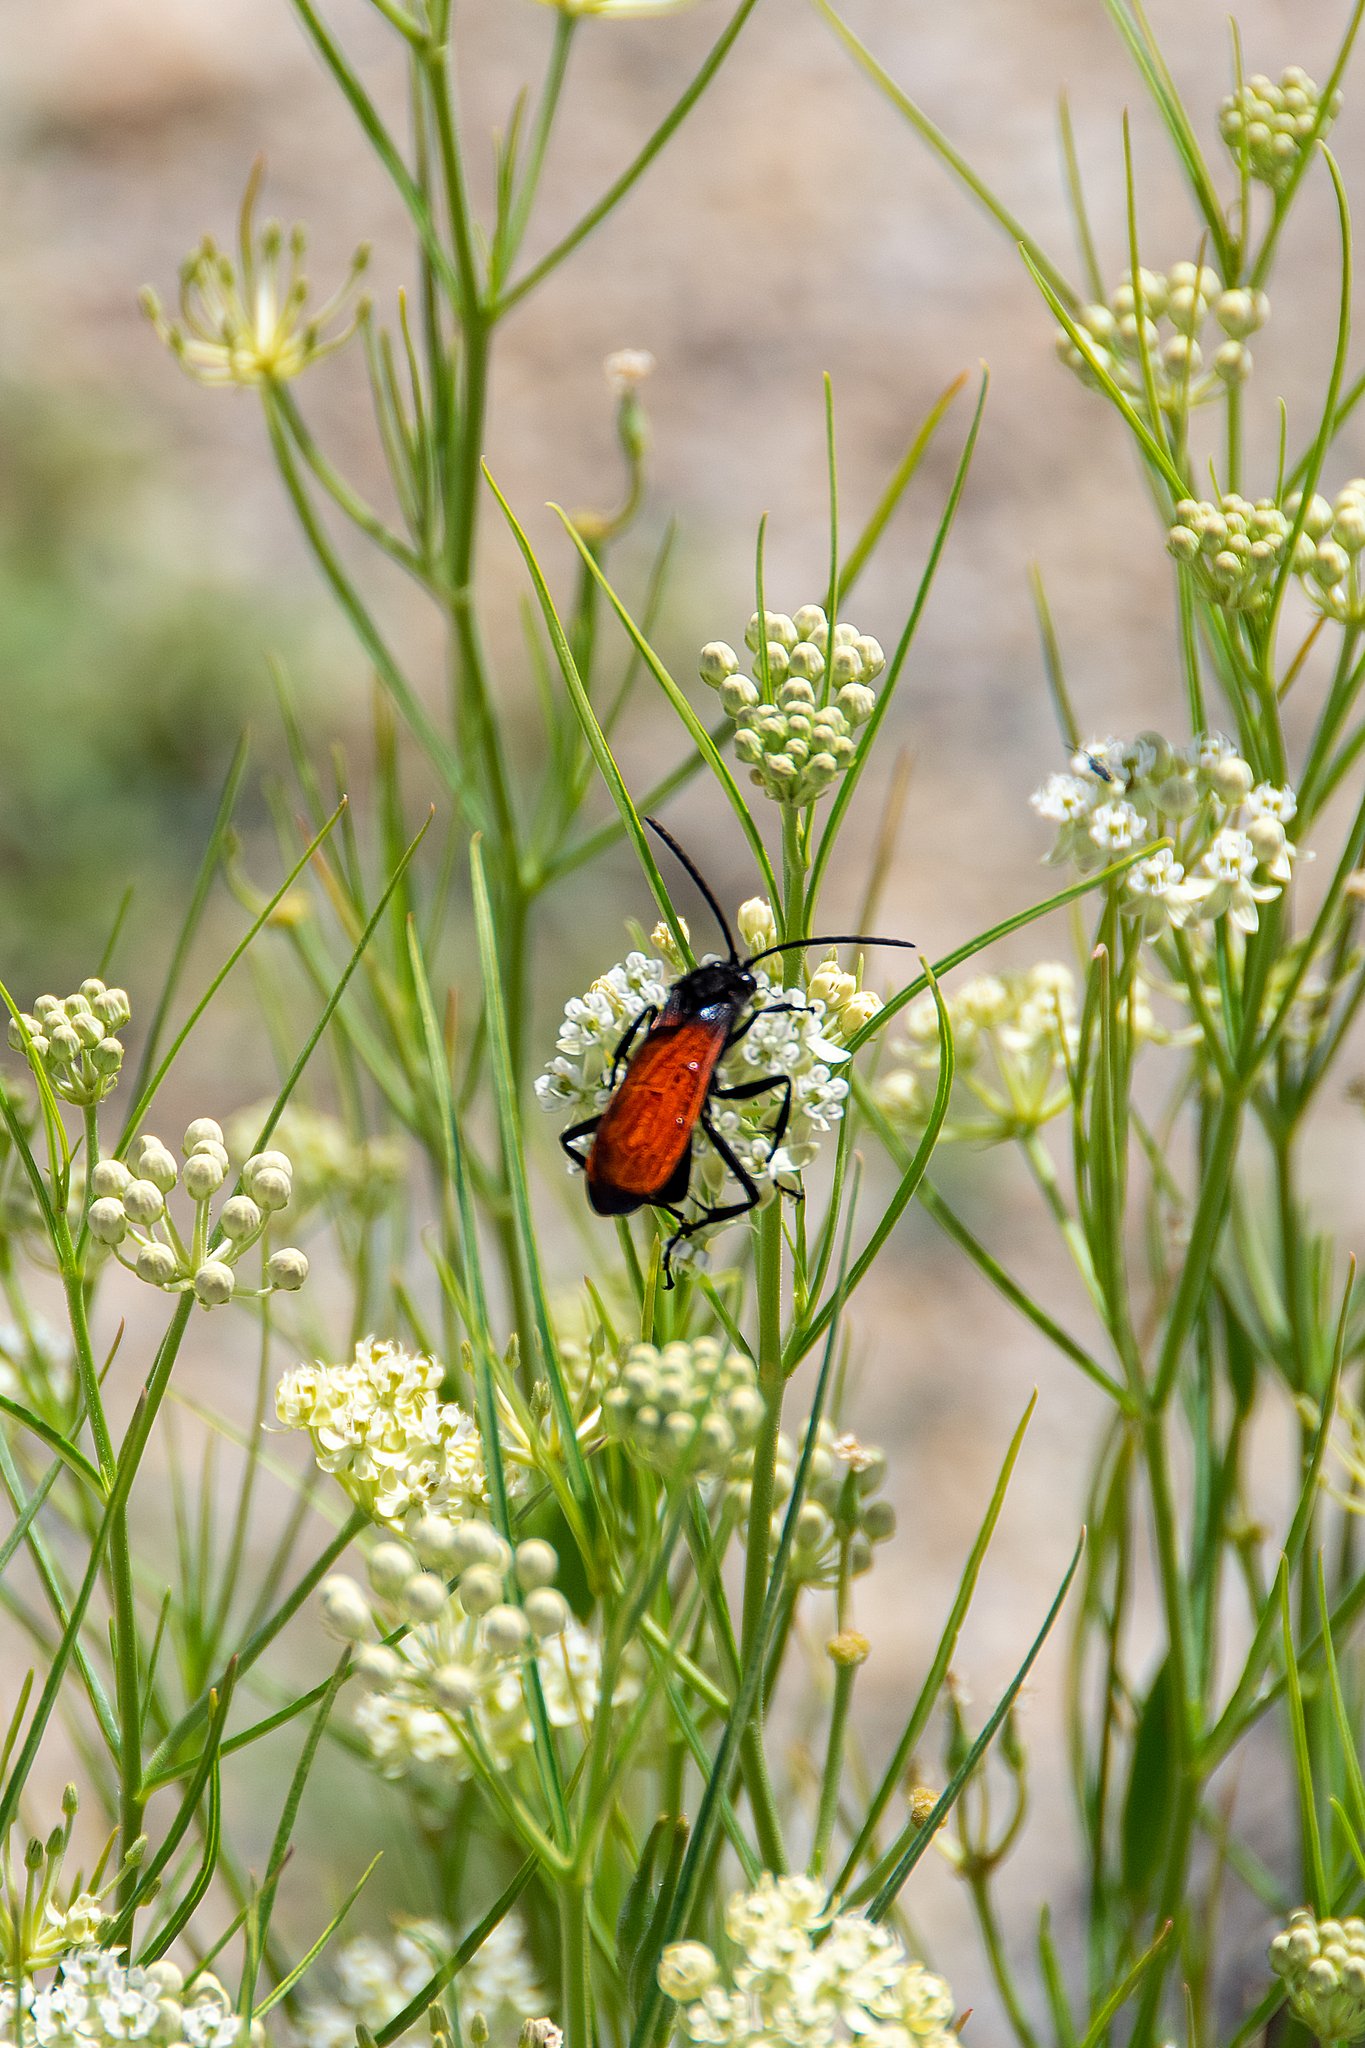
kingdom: Plantae
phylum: Tracheophyta
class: Magnoliopsida
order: Gentianales
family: Apocynaceae
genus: Asclepias
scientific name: Asclepias subverticillata
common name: Horsetail milkweed
